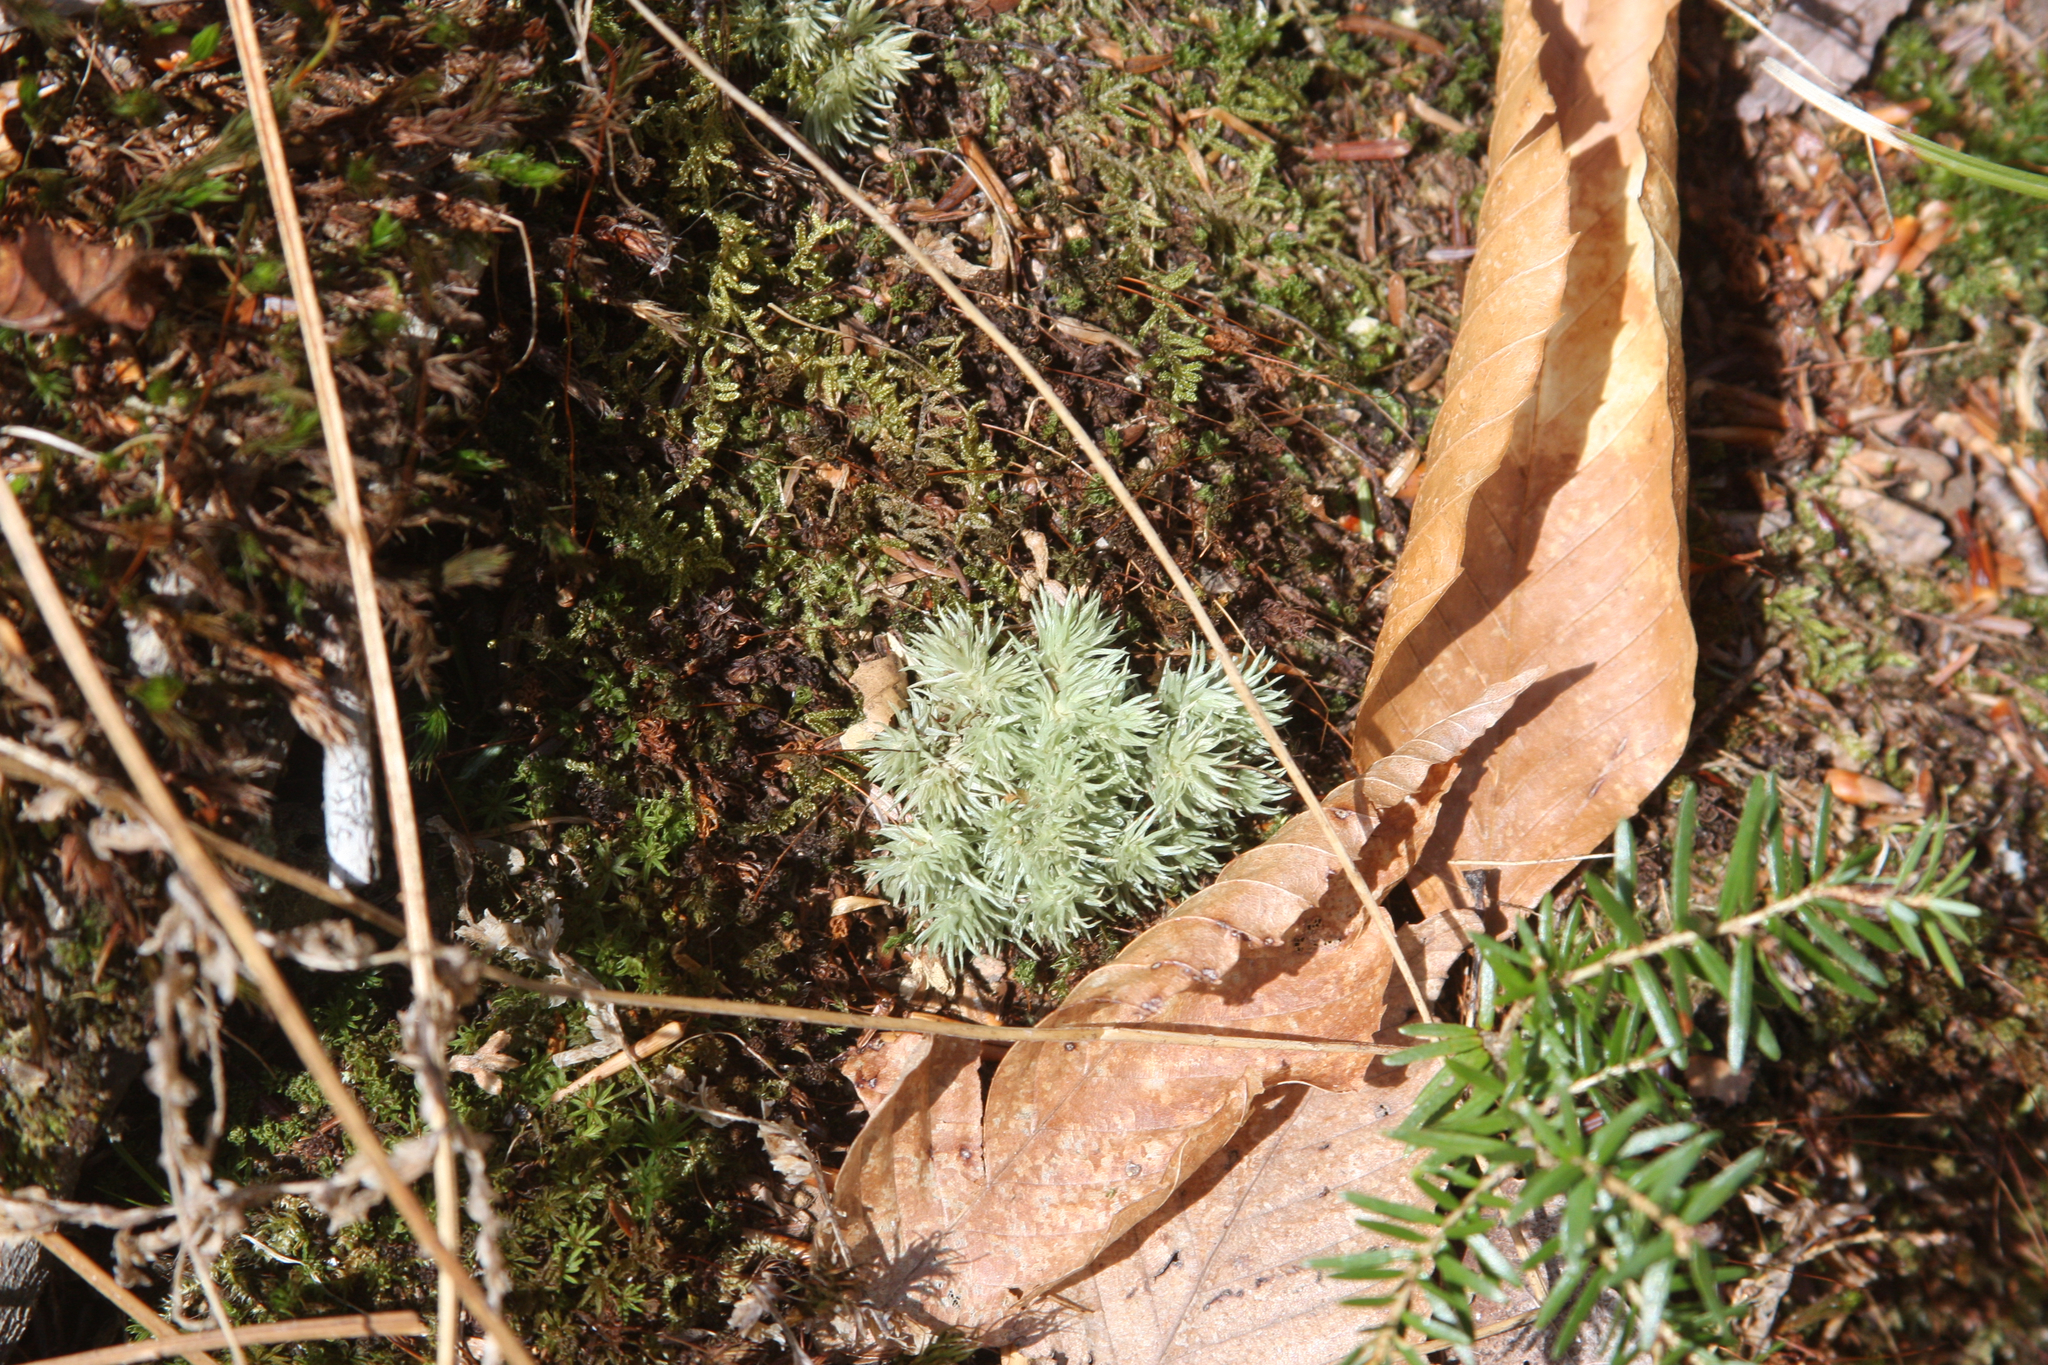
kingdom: Plantae
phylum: Tracheophyta
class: Magnoliopsida
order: Fagales
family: Fagaceae
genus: Fagus
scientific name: Fagus grandifolia
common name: American beech
